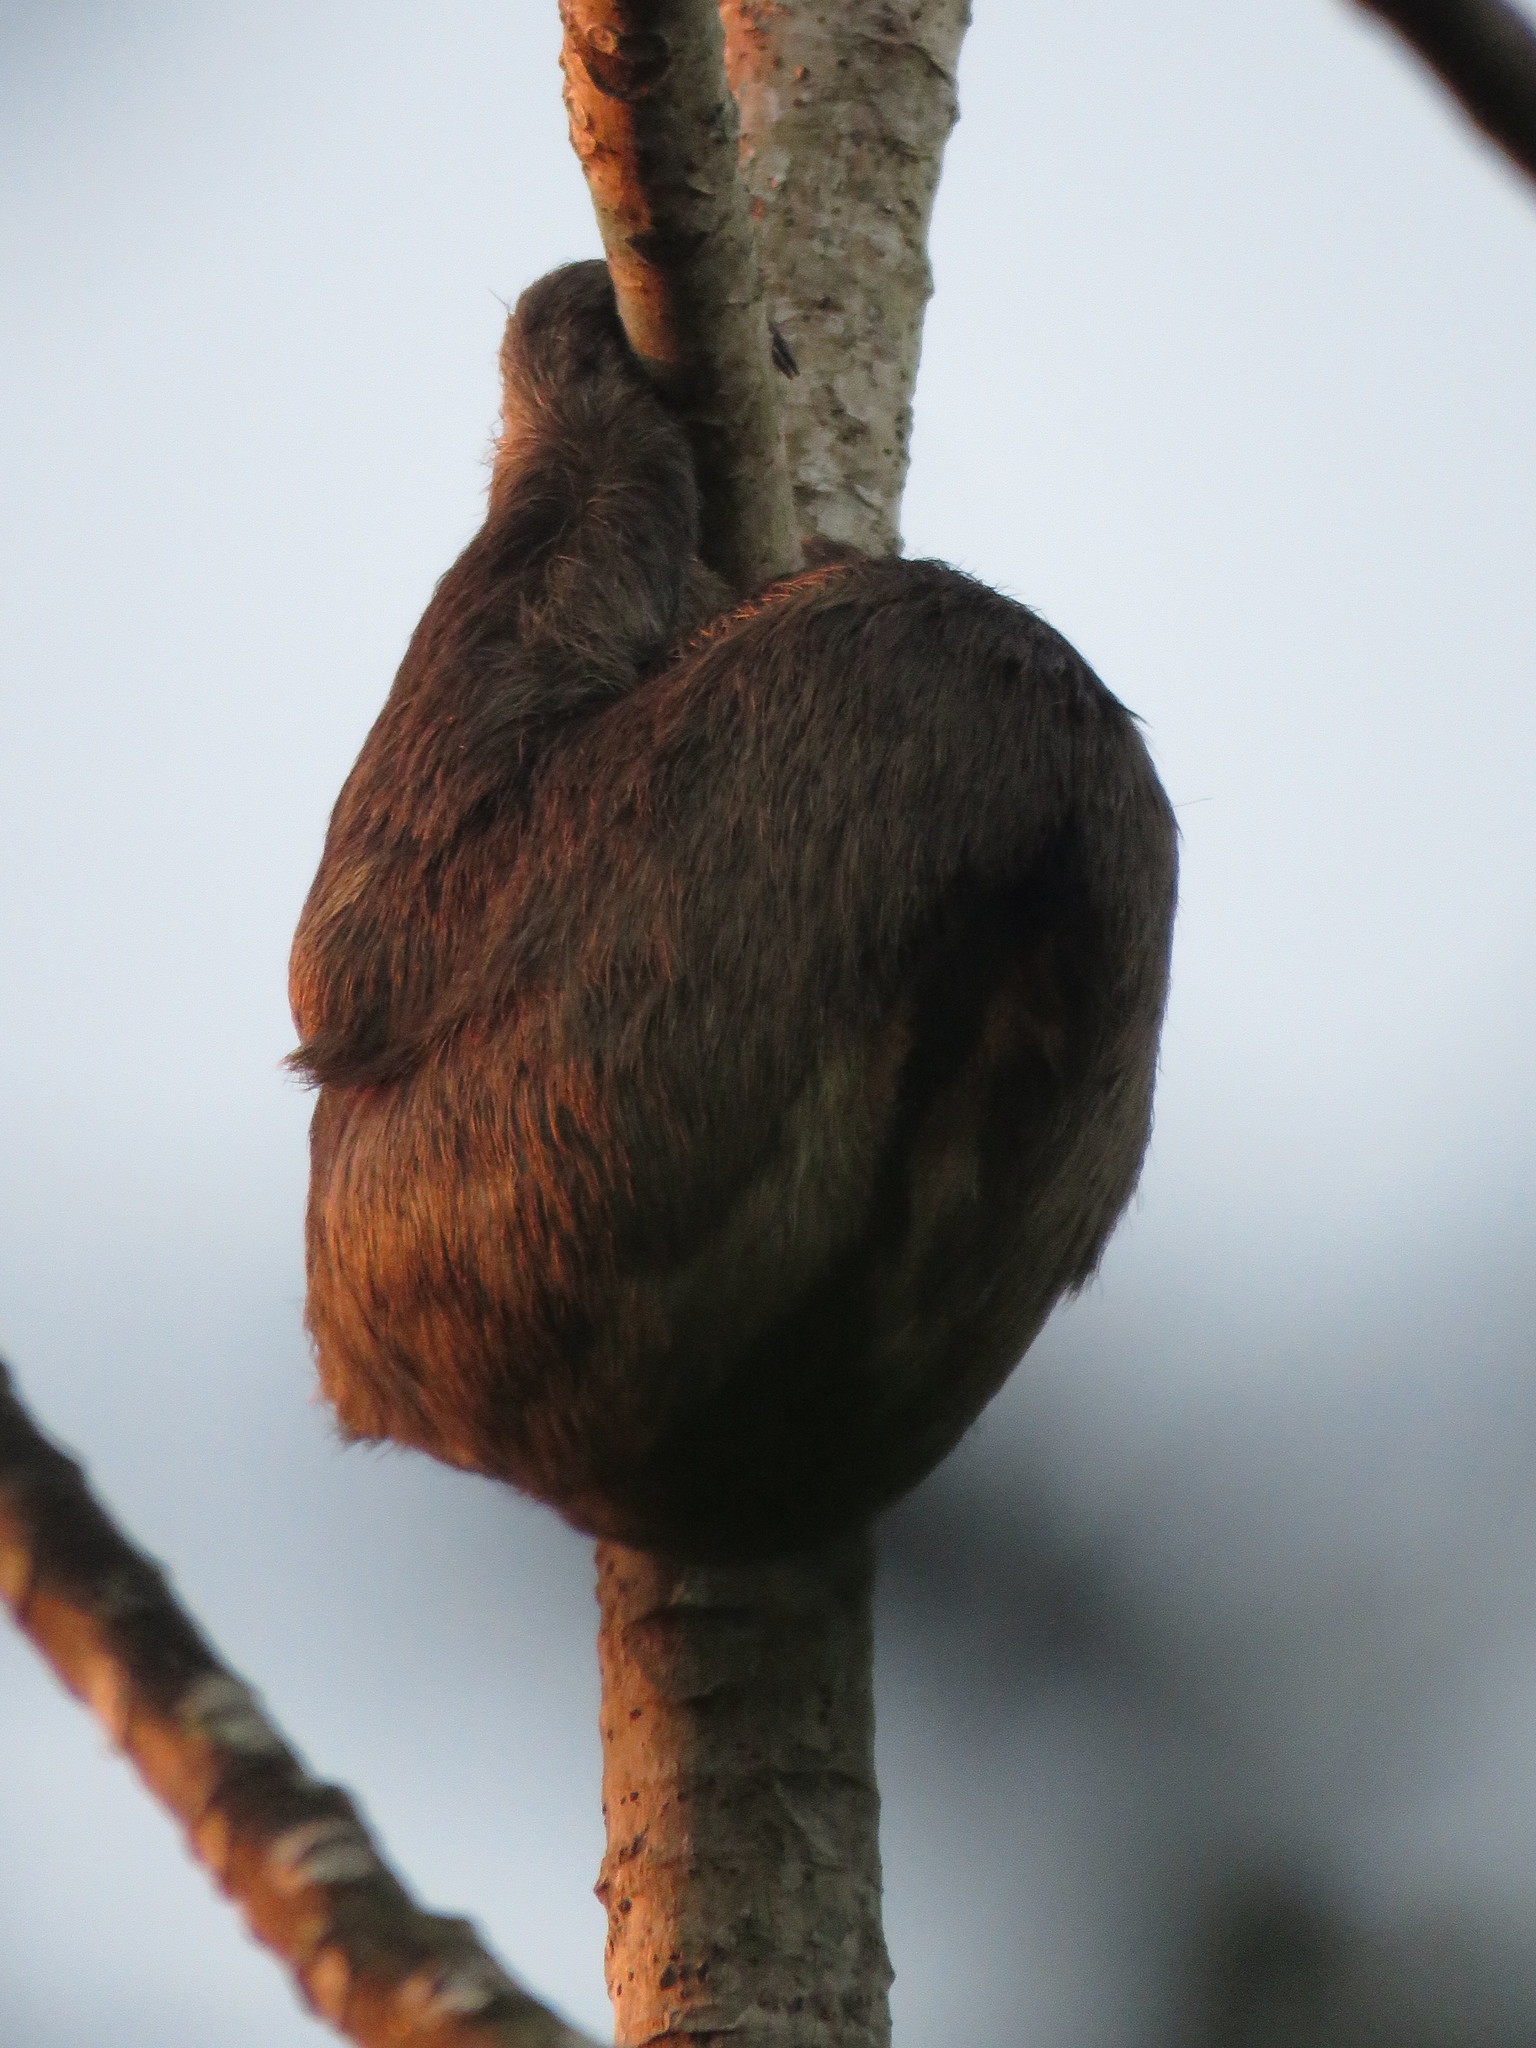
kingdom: Animalia
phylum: Chordata
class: Mammalia
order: Pilosa
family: Bradypodidae
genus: Bradypus
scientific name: Bradypus variegatus
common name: Brown-throated three-toed sloth
